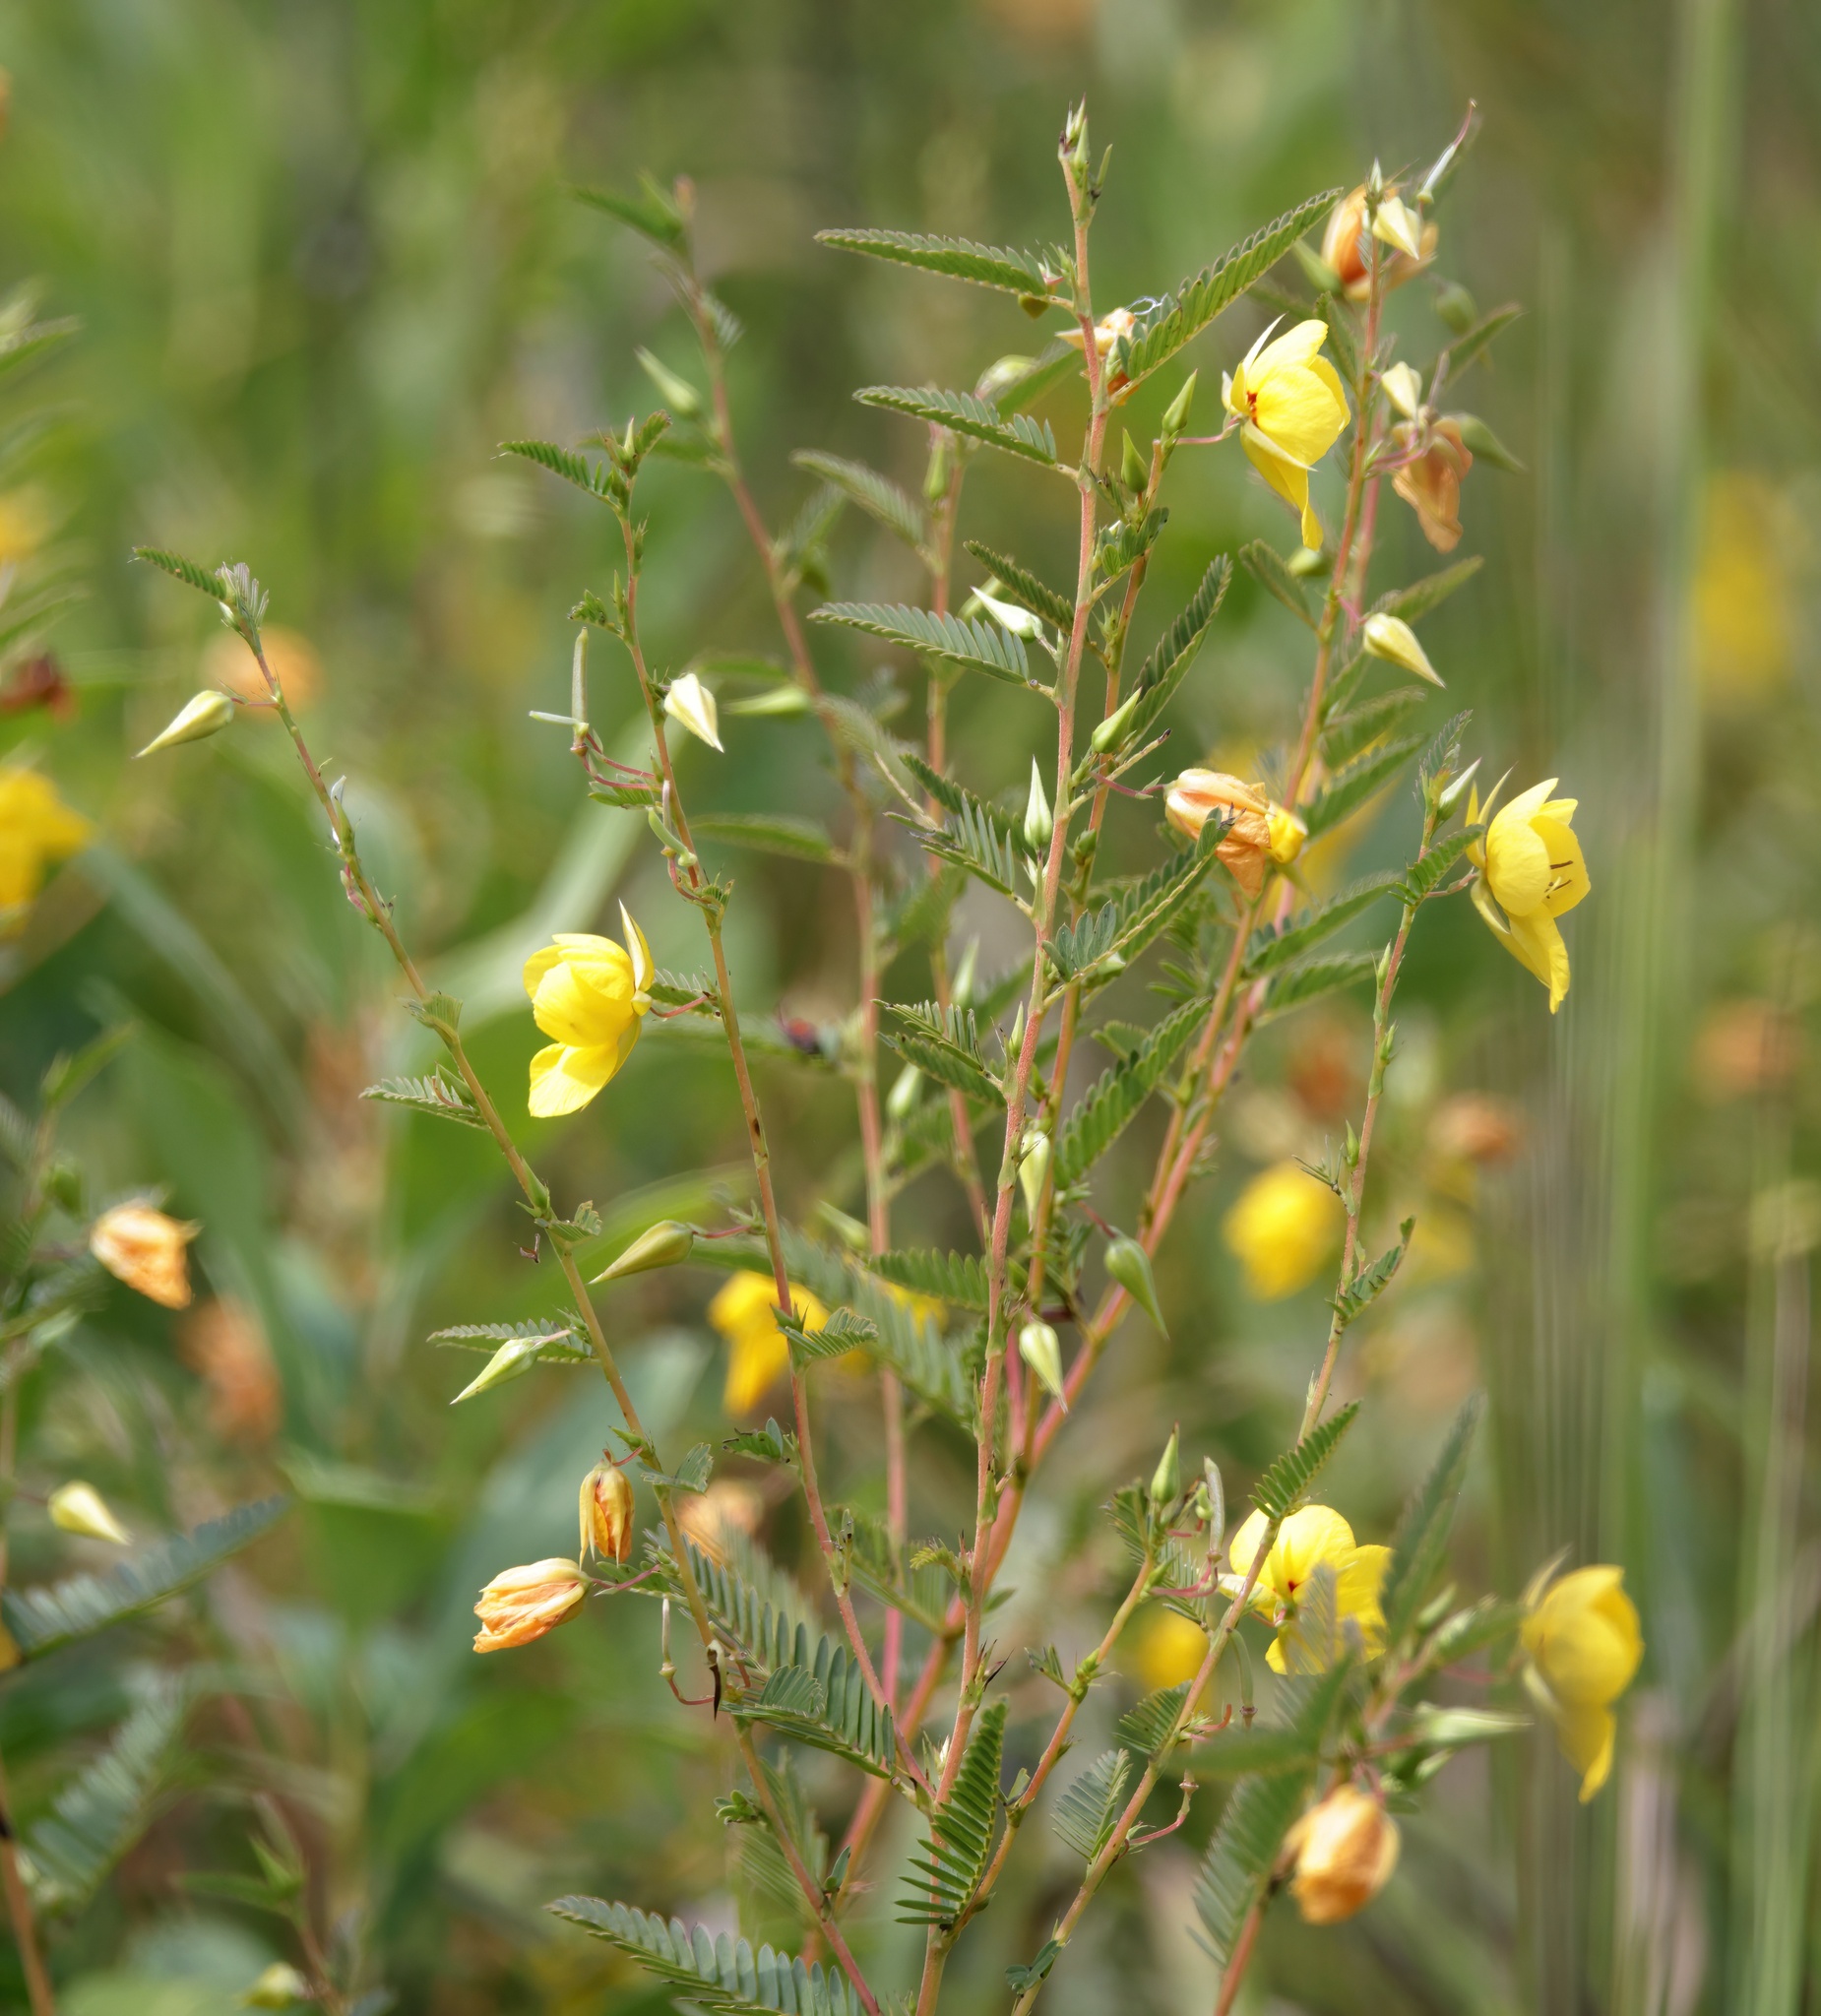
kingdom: Plantae
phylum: Tracheophyta
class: Magnoliopsida
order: Fabales
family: Fabaceae
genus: Chamaecrista
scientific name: Chamaecrista fasciculata
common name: Golden cassia
